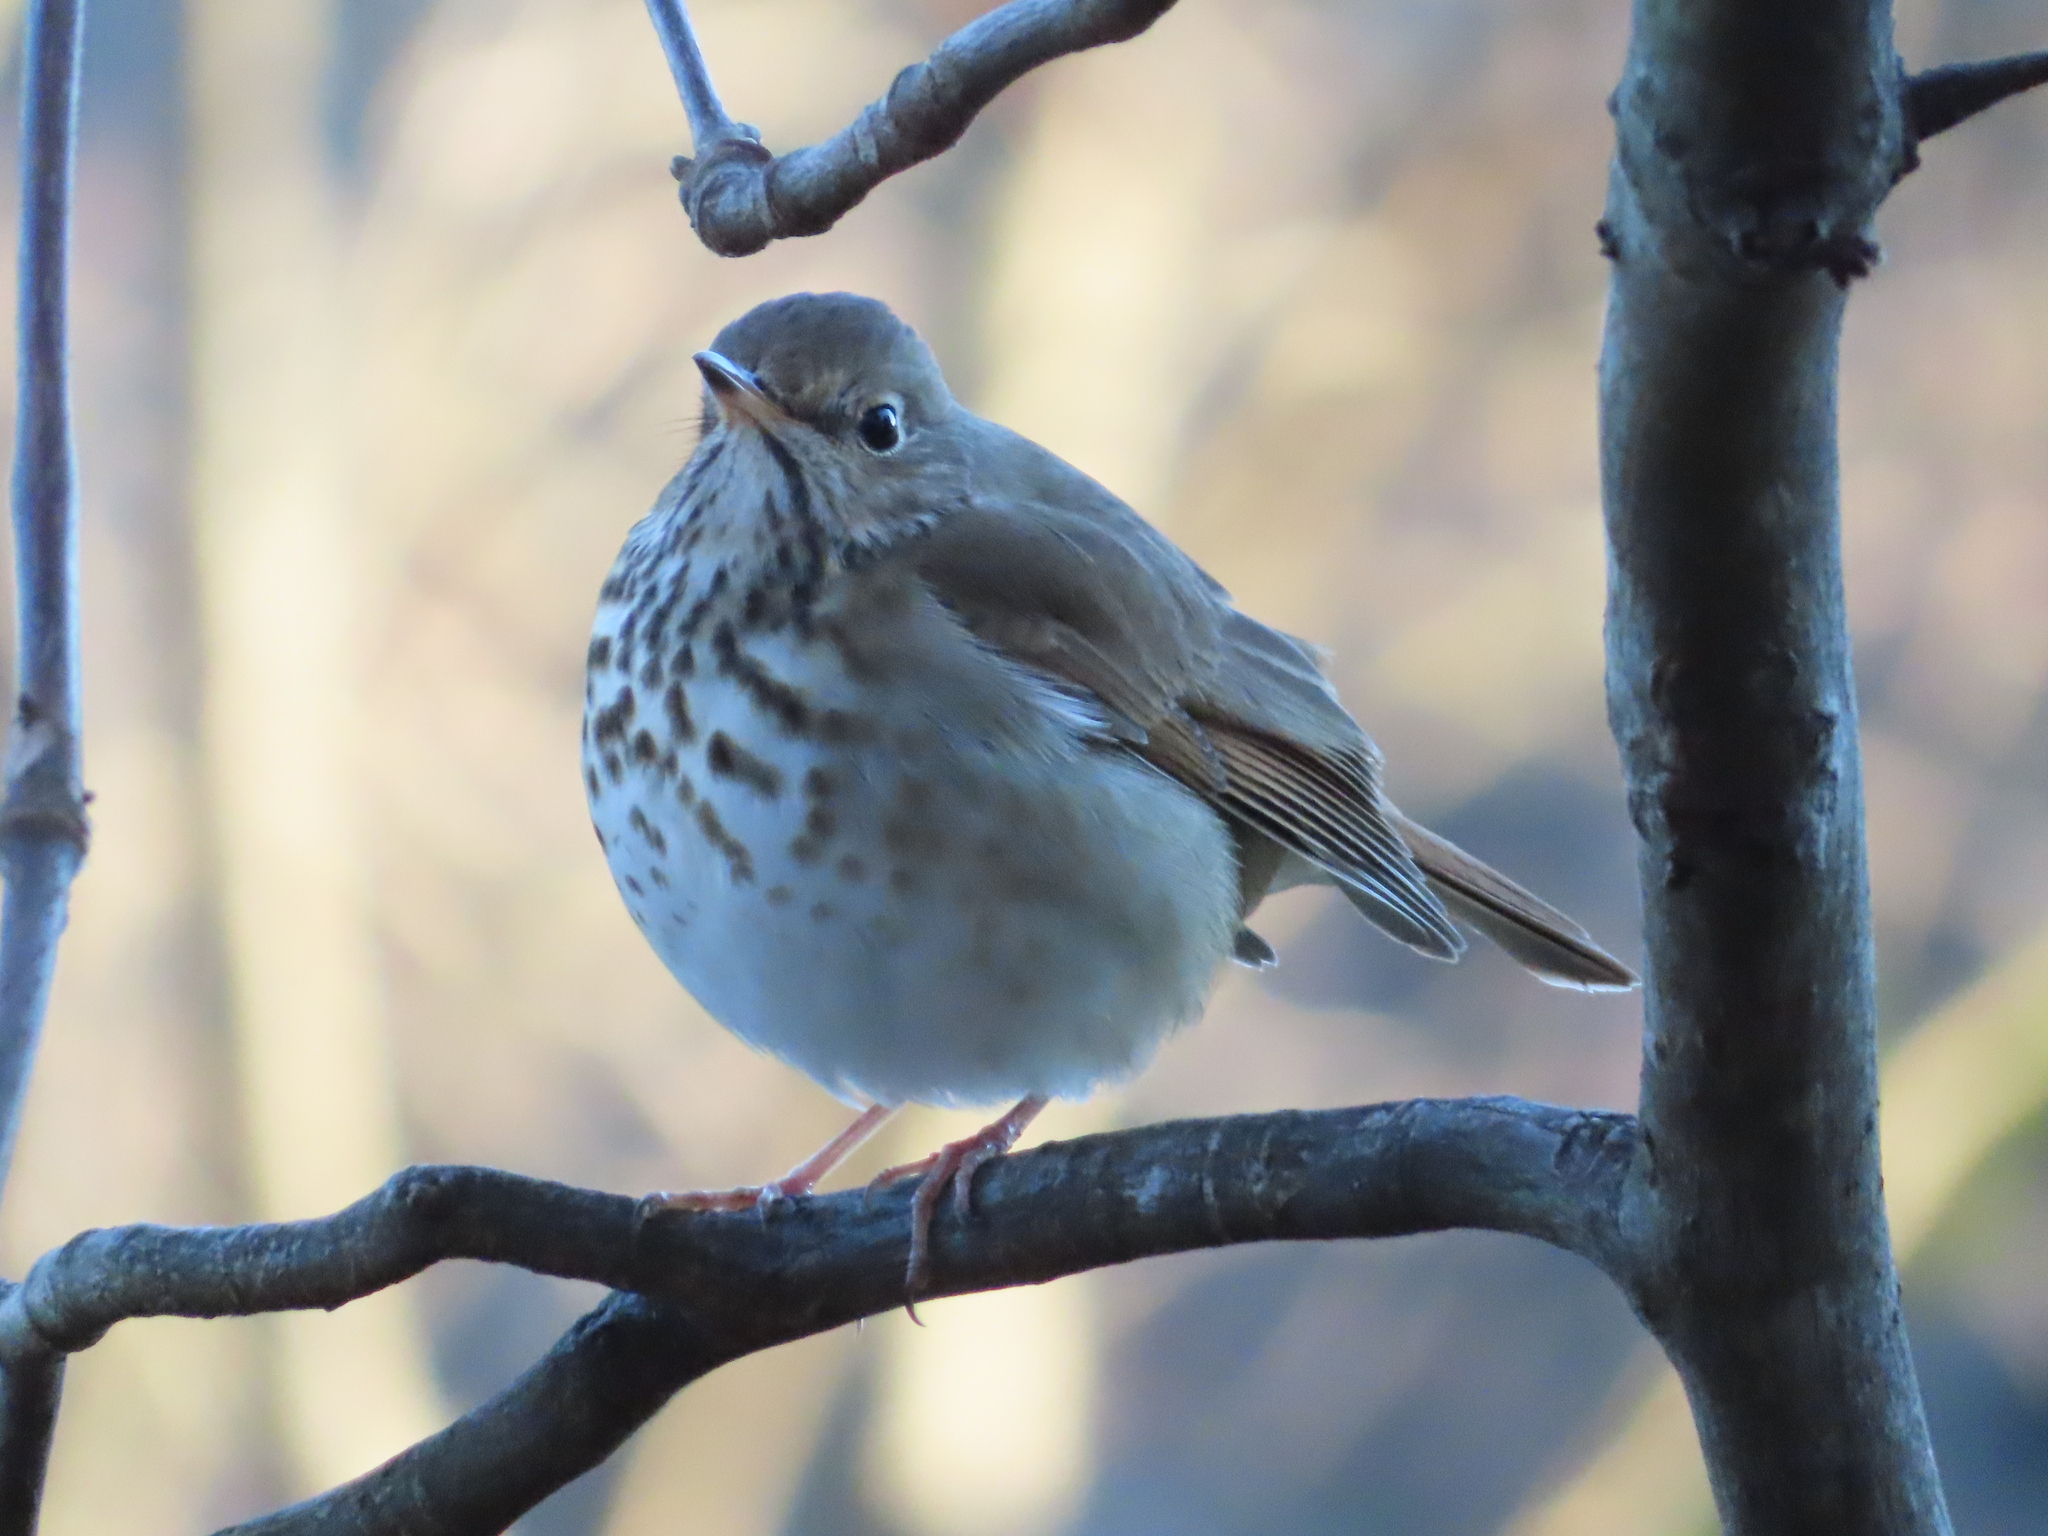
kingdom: Animalia
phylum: Chordata
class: Aves
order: Passeriformes
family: Turdidae
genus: Catharus
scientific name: Catharus guttatus
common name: Hermit thrush
